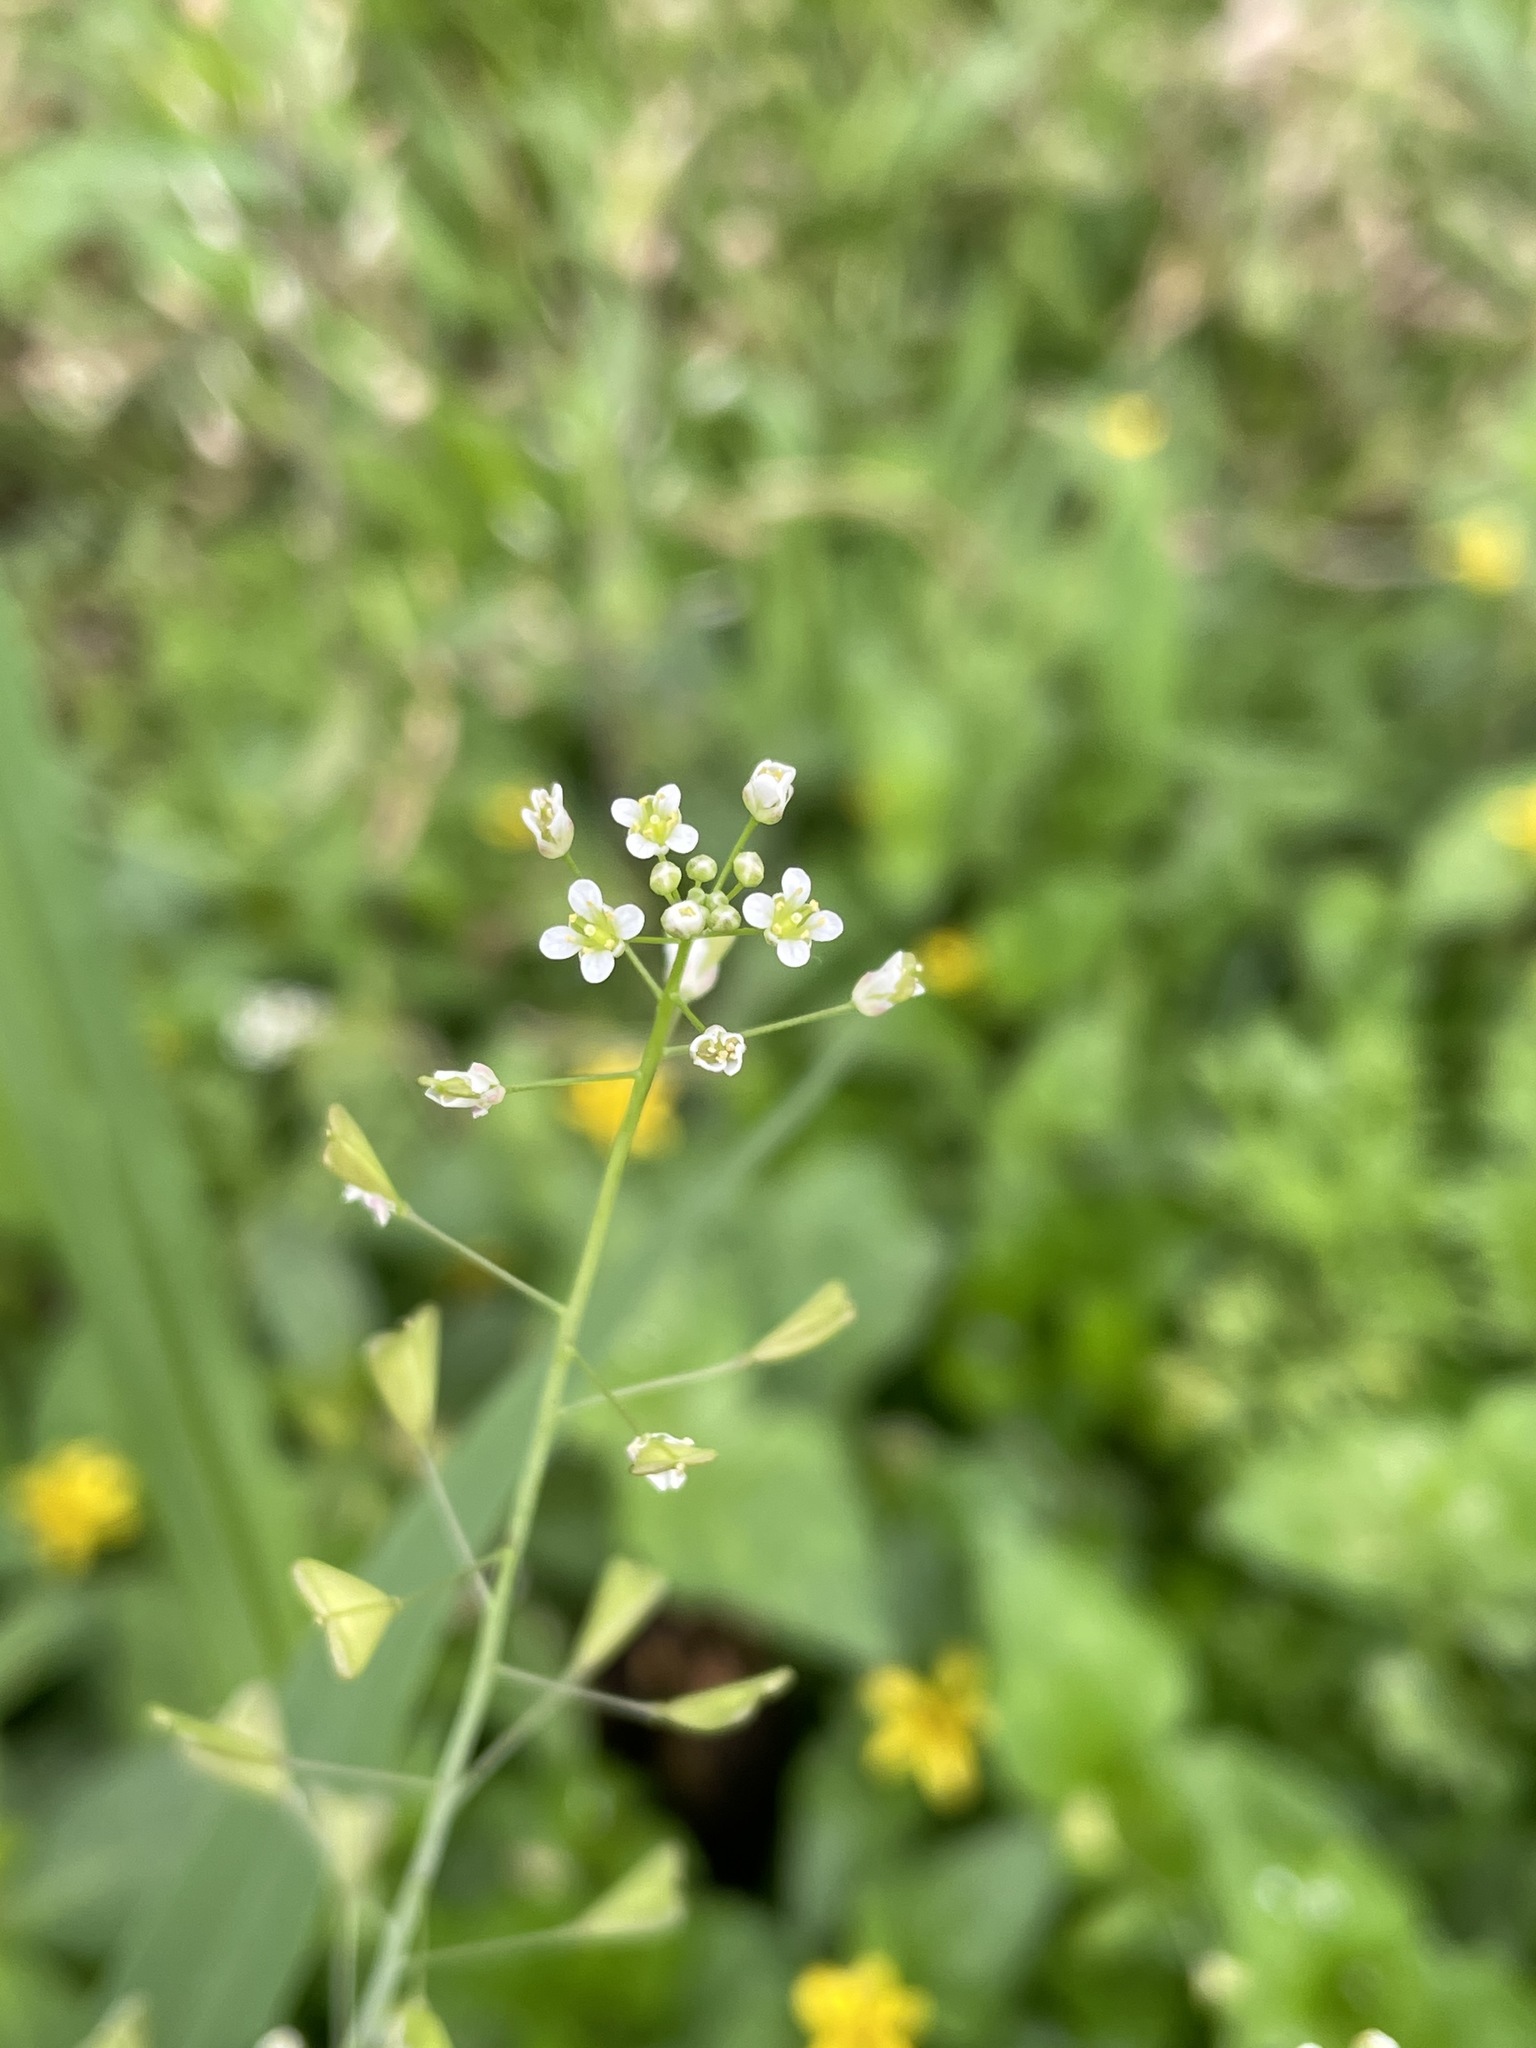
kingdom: Plantae
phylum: Tracheophyta
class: Magnoliopsida
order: Brassicales
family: Brassicaceae
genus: Capsella
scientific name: Capsella bursa-pastoris
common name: Shepherd's purse
